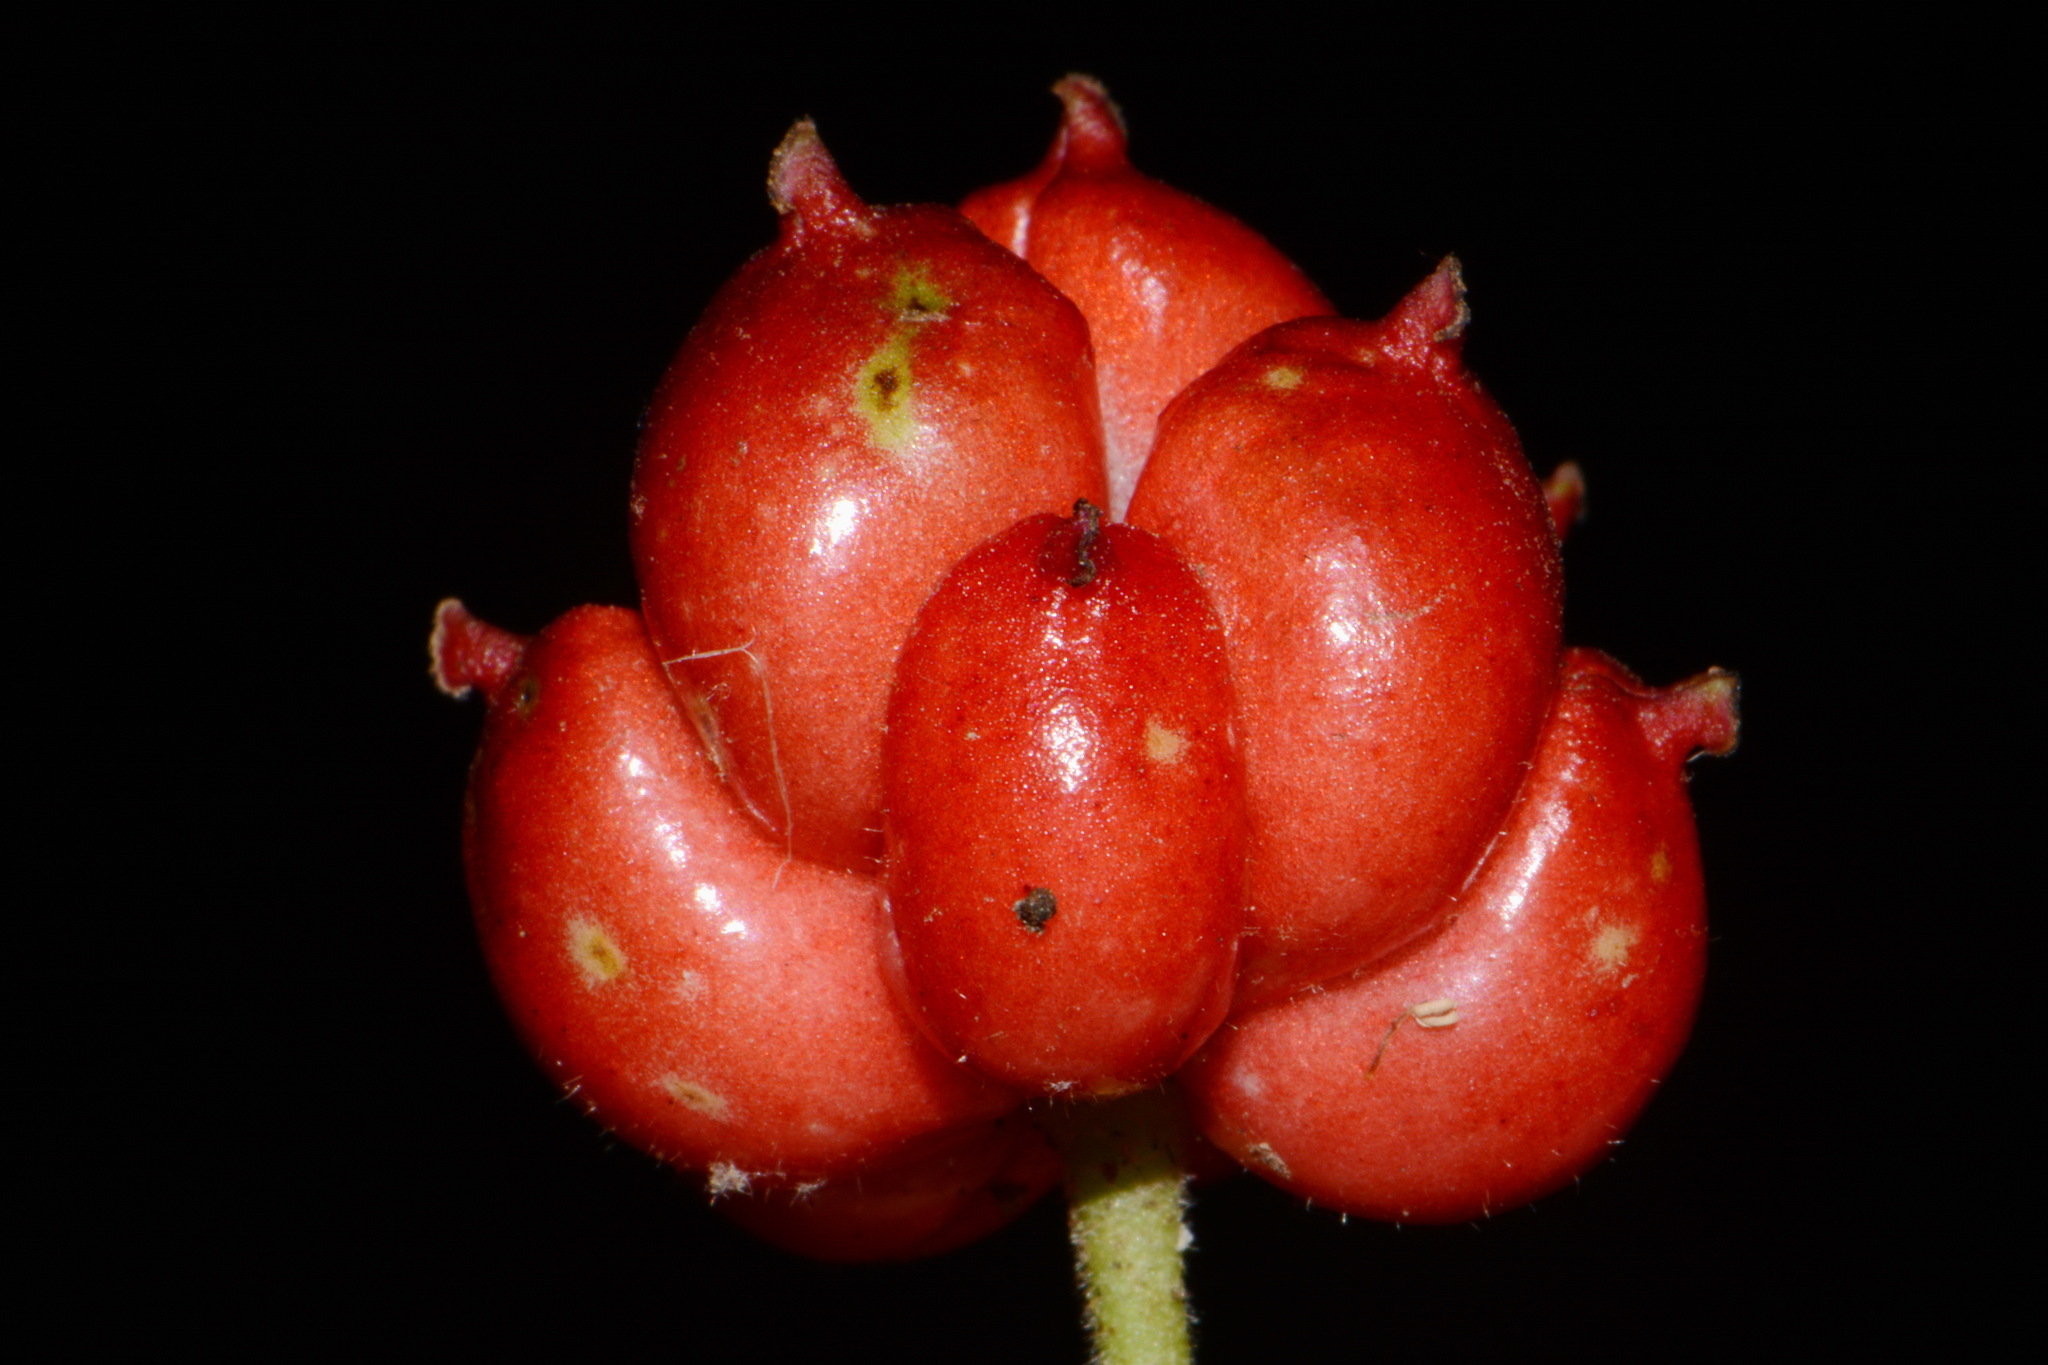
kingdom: Plantae
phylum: Tracheophyta
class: Magnoliopsida
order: Ranunculales
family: Ranunculaceae
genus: Hydrastis
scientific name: Hydrastis canadensis
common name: Goldenseal
